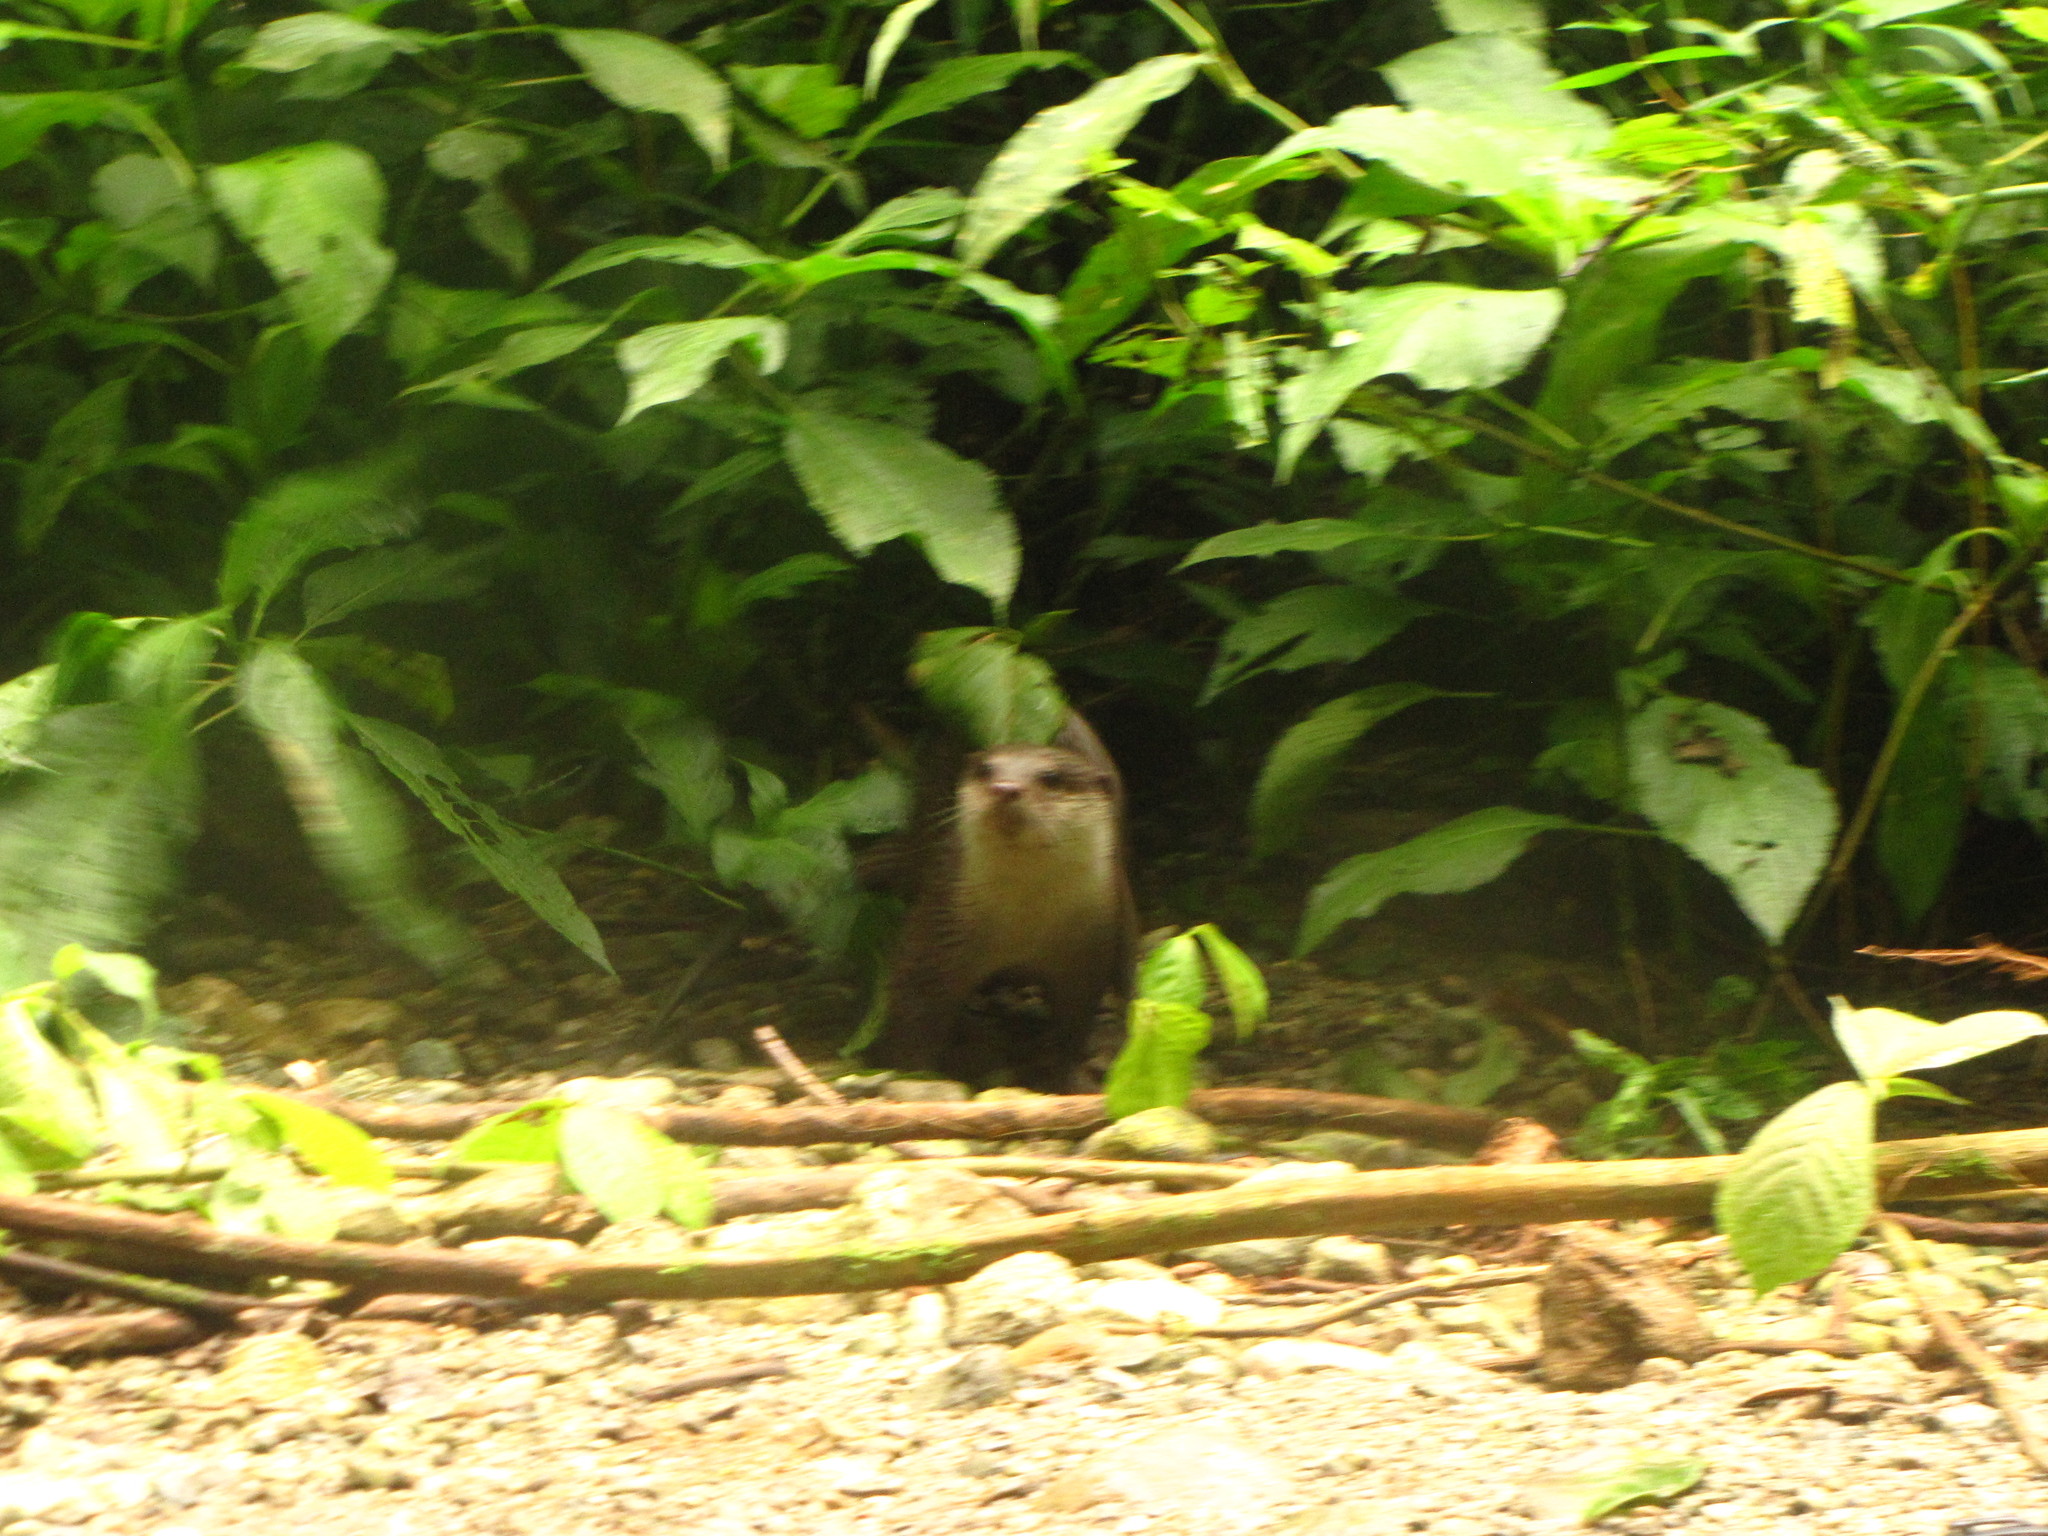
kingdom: Animalia
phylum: Chordata
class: Mammalia
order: Carnivora
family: Mustelidae
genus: Amblonyx
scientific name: Amblonyx cinereus
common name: Oriental small-clawed otter
